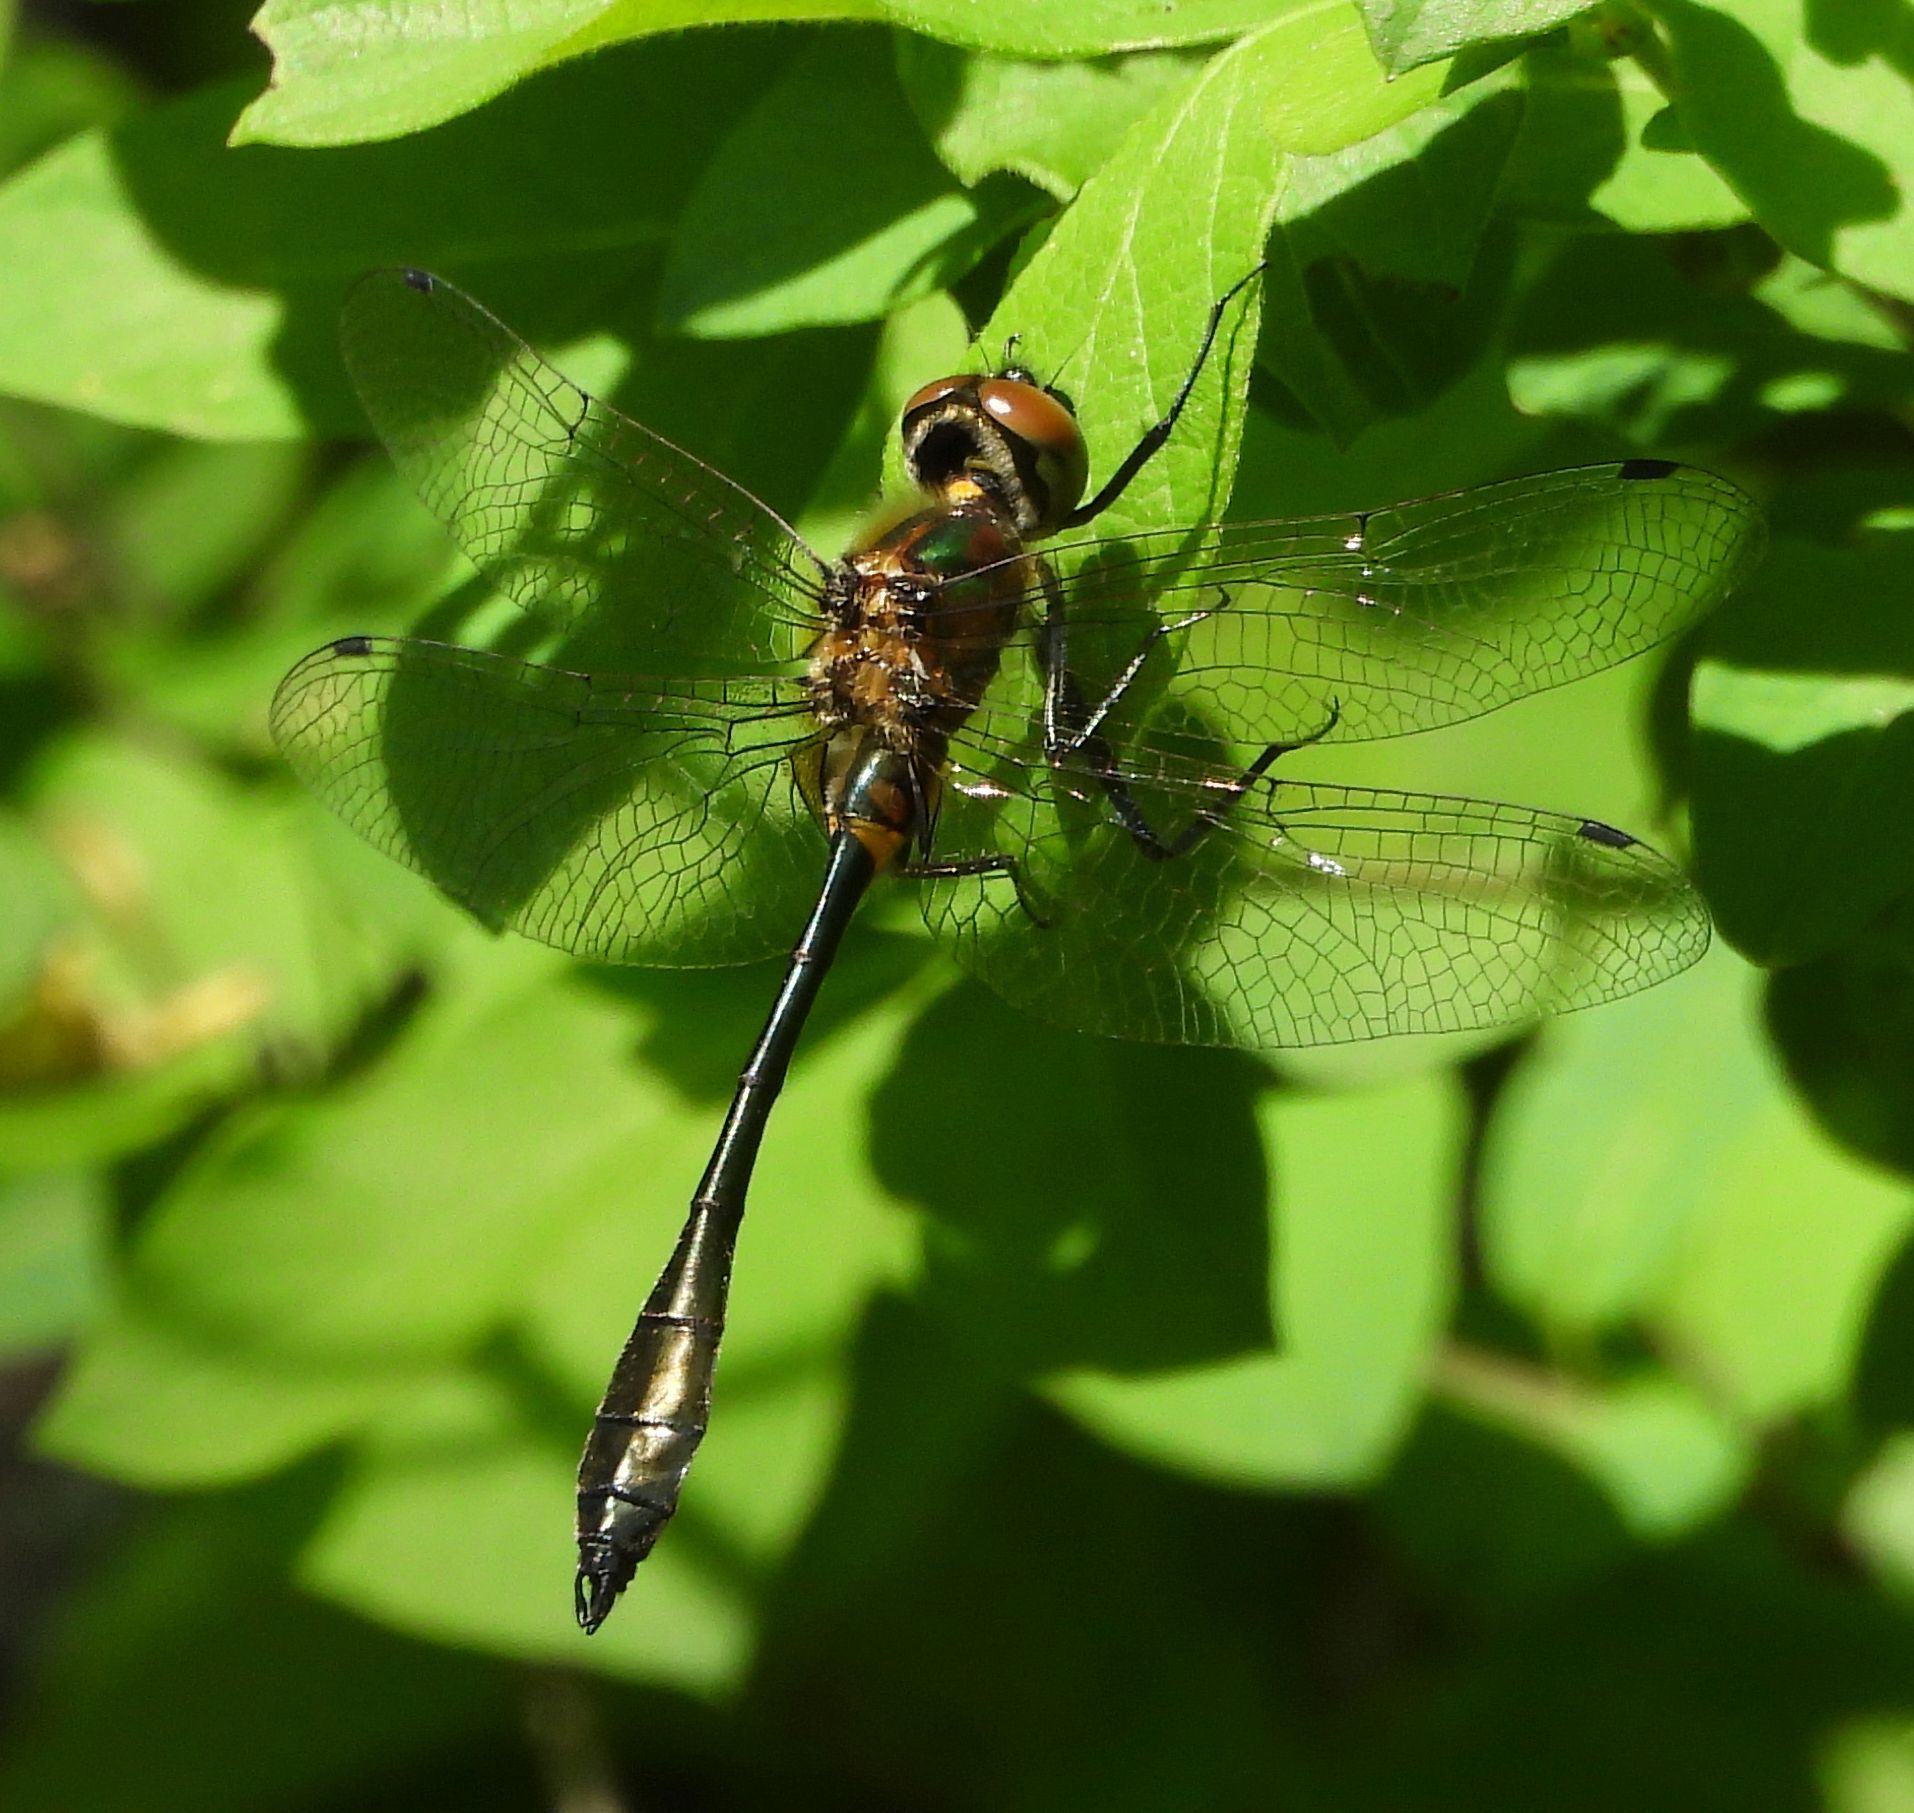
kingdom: Animalia
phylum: Arthropoda
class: Insecta
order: Odonata
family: Corduliidae
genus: Dorocordulia
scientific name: Dorocordulia libera
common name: Racket-tailed emerald
